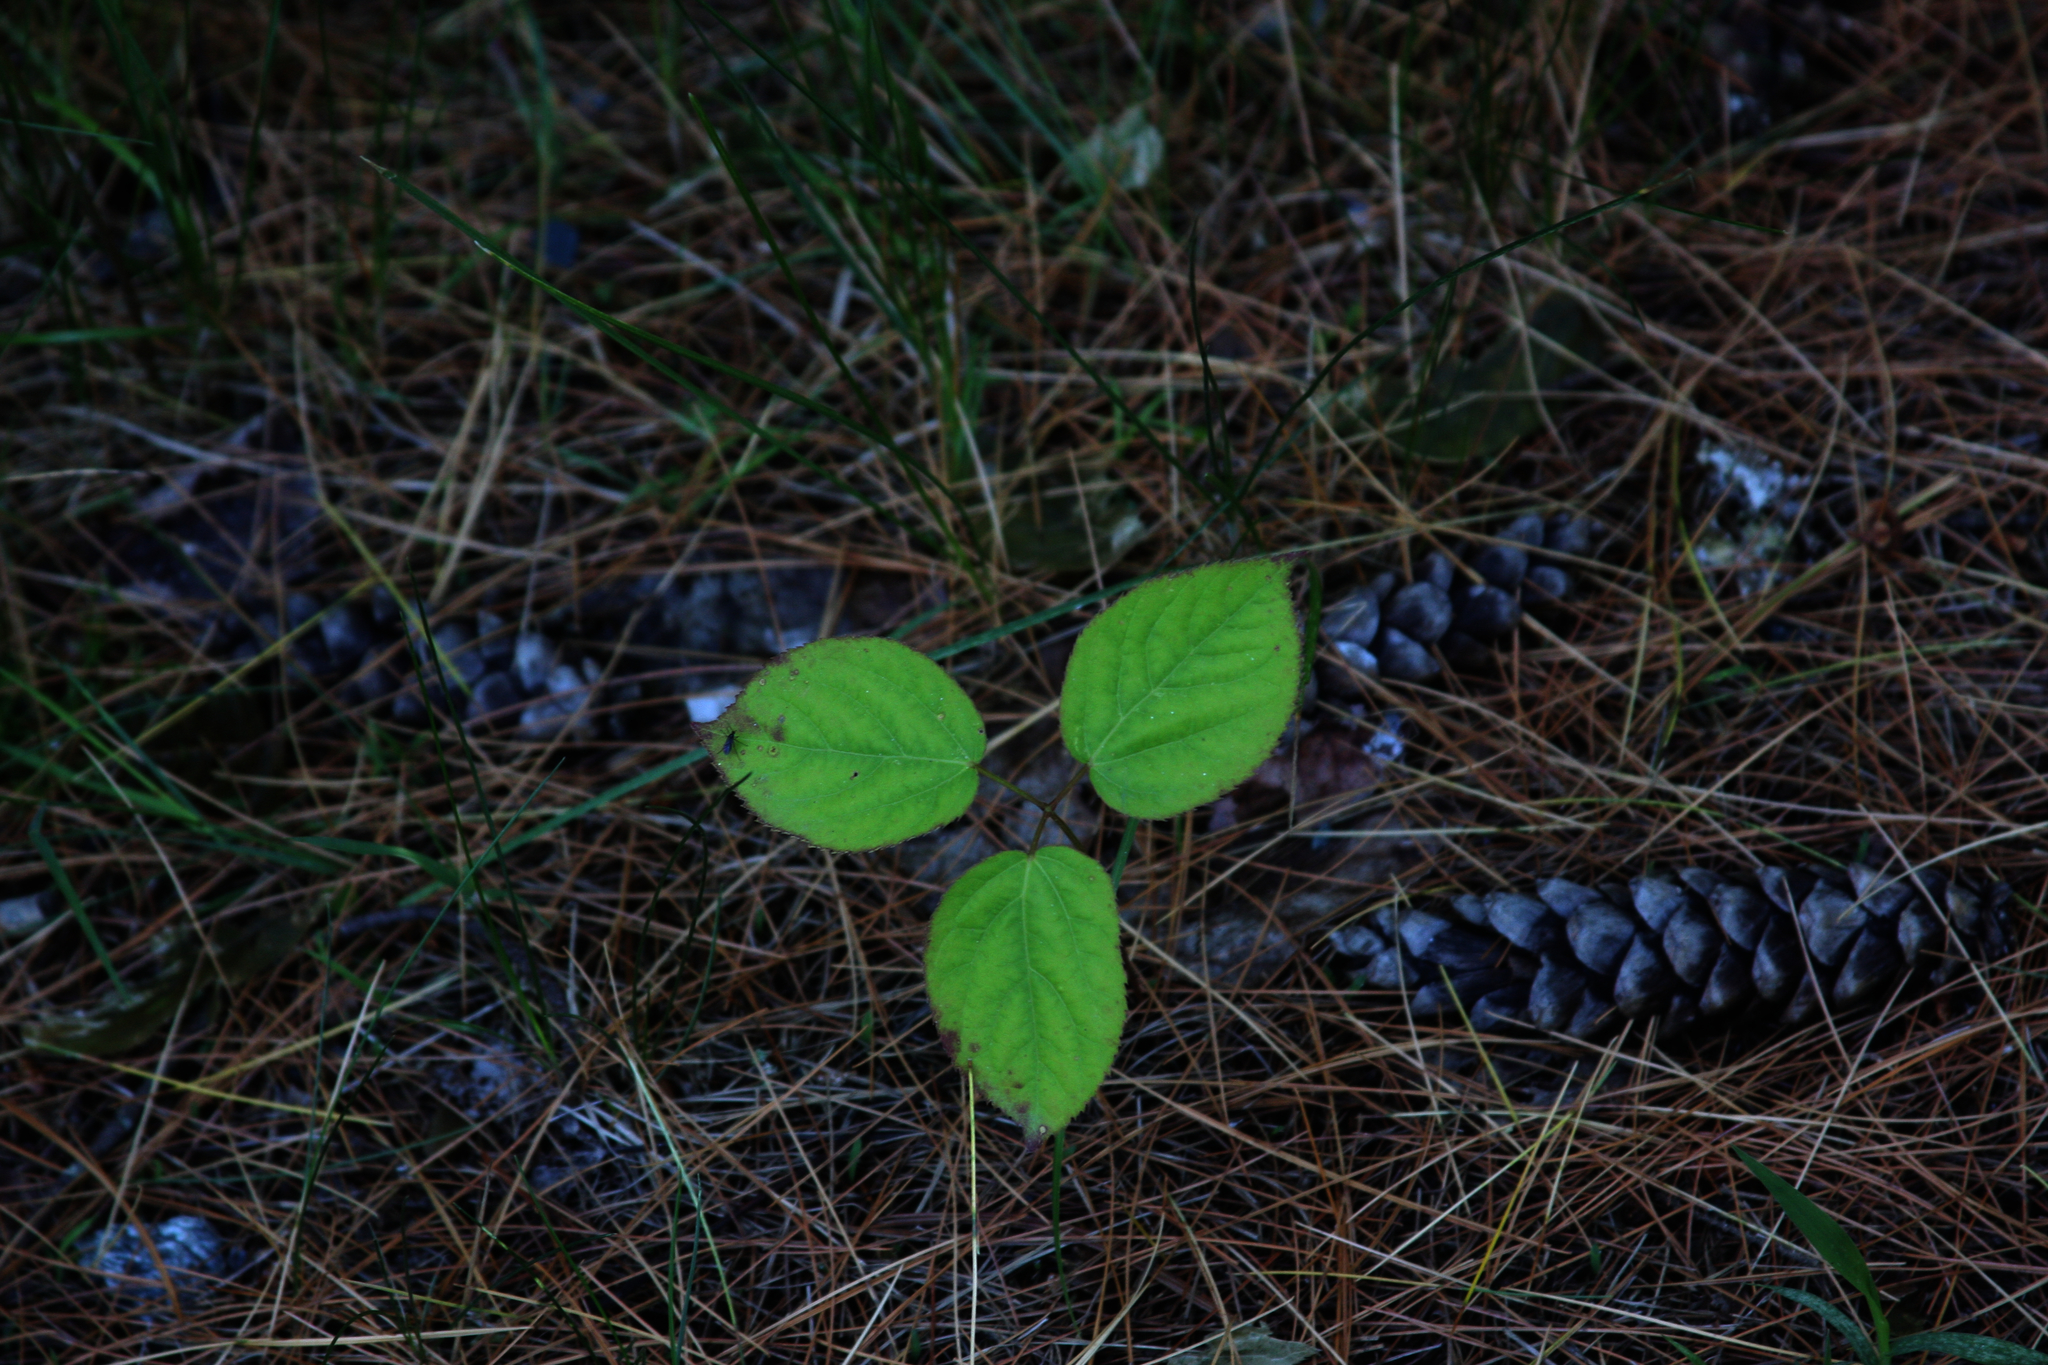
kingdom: Plantae
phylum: Tracheophyta
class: Magnoliopsida
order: Fabales
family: Fabaceae
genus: Amphicarpaea
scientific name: Amphicarpaea bracteata
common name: American hog peanut
